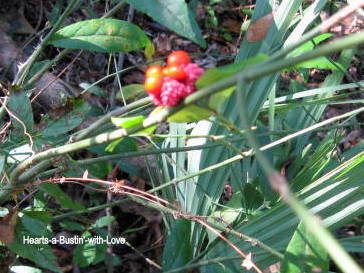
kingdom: Plantae
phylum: Tracheophyta
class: Magnoliopsida
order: Celastrales
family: Celastraceae
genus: Euonymus
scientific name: Euonymus americanus
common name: Bursting-heart
